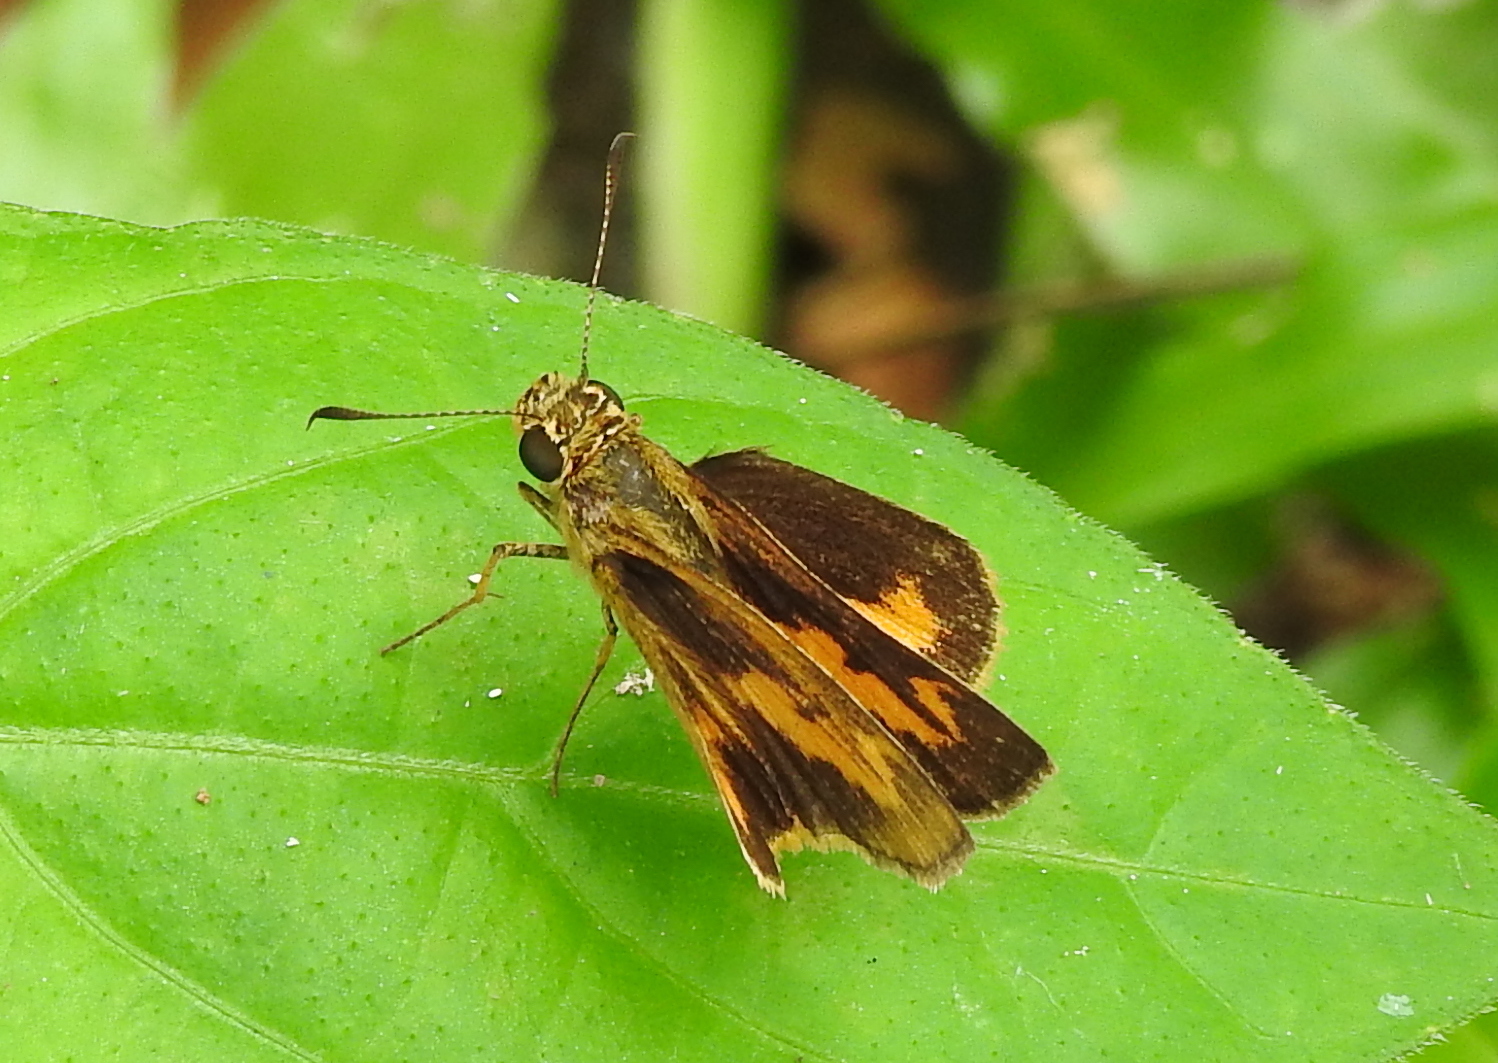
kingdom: Animalia
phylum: Arthropoda
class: Insecta
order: Lepidoptera
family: Hesperiidae
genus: Oriens
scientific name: Oriens gola
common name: Common dartlet
